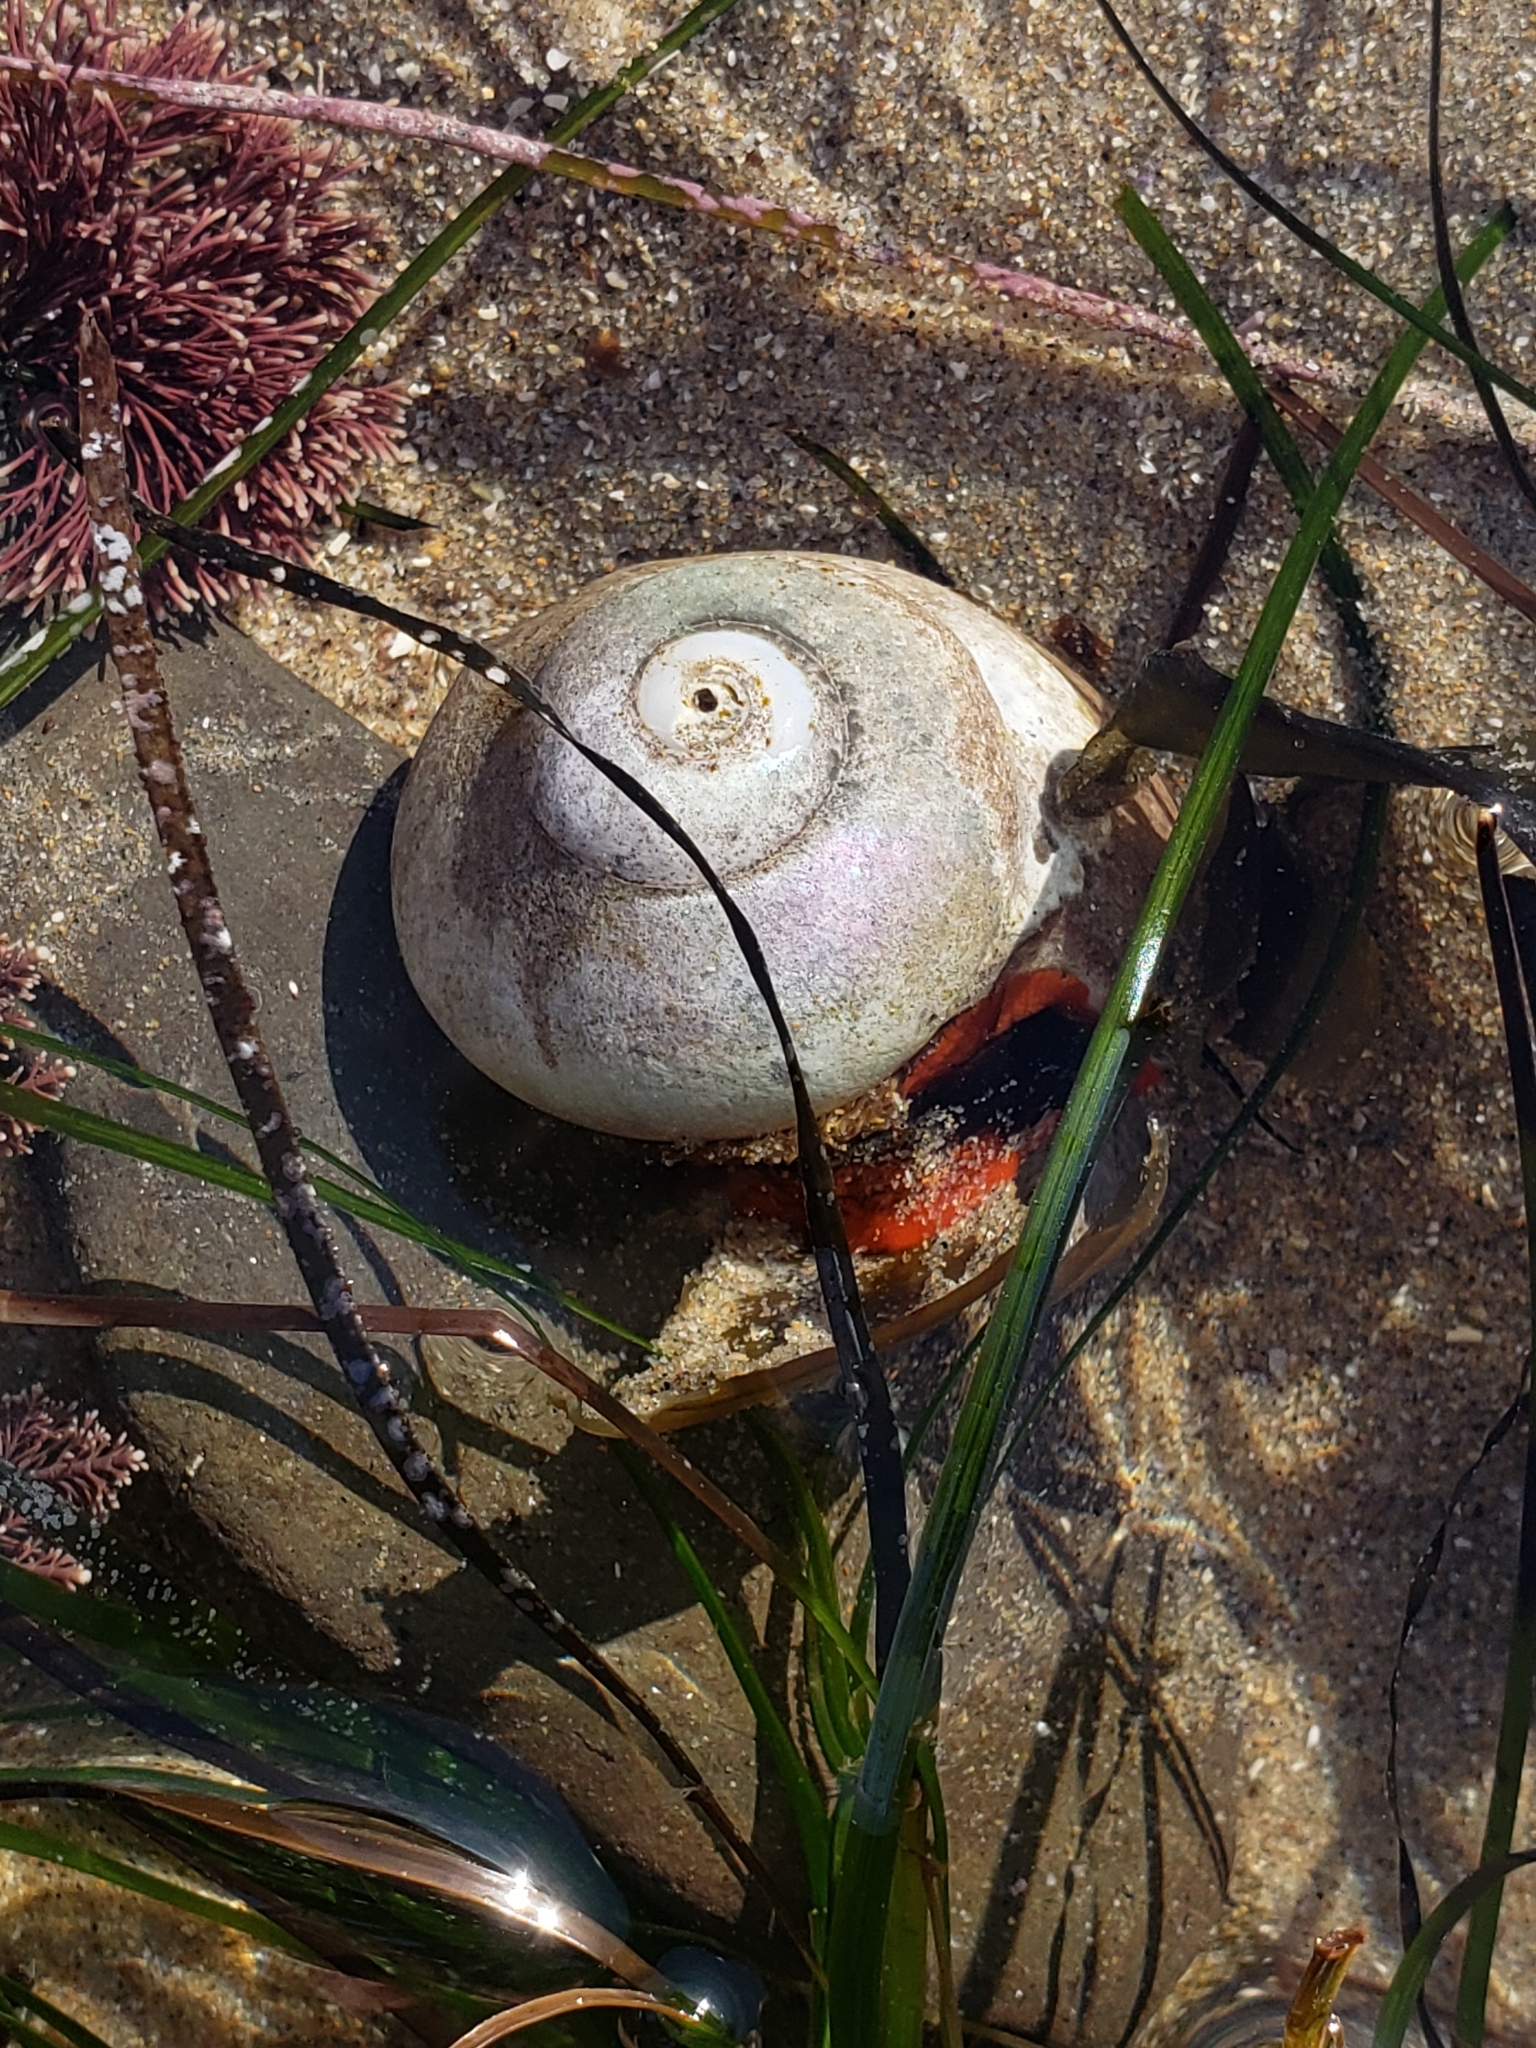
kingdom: Animalia
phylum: Mollusca
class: Gastropoda
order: Trochida
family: Tegulidae
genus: Norrisia
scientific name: Norrisia norrisii
